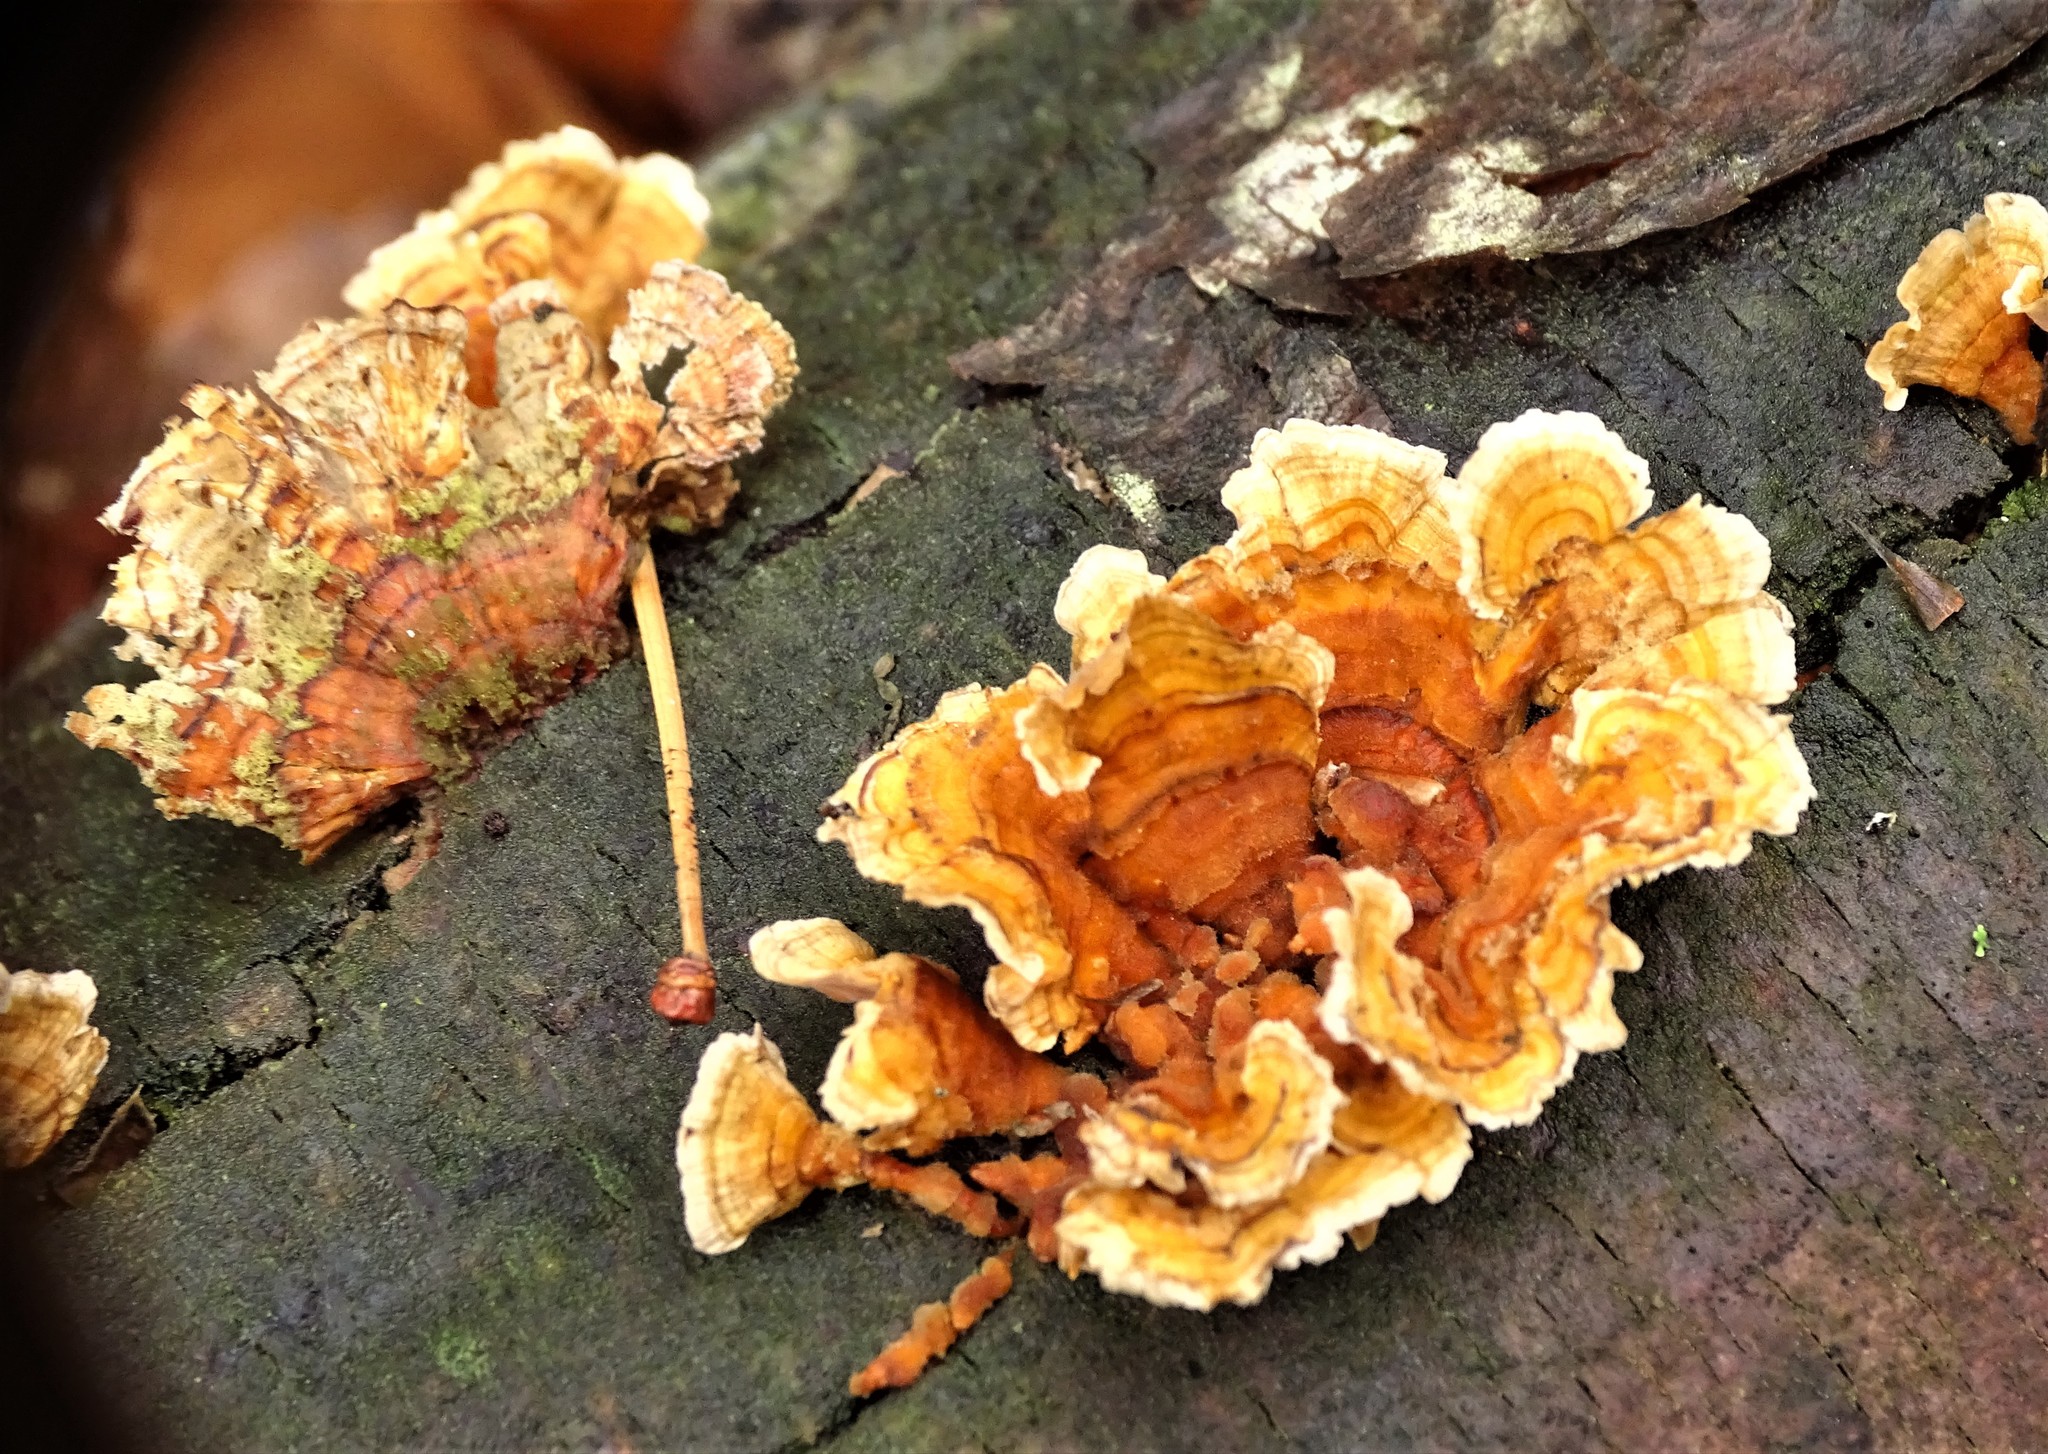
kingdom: Fungi
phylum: Basidiomycota
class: Agaricomycetes
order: Russulales
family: Stereaceae
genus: Stereum
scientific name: Stereum complicatum
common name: Crowded parchment
